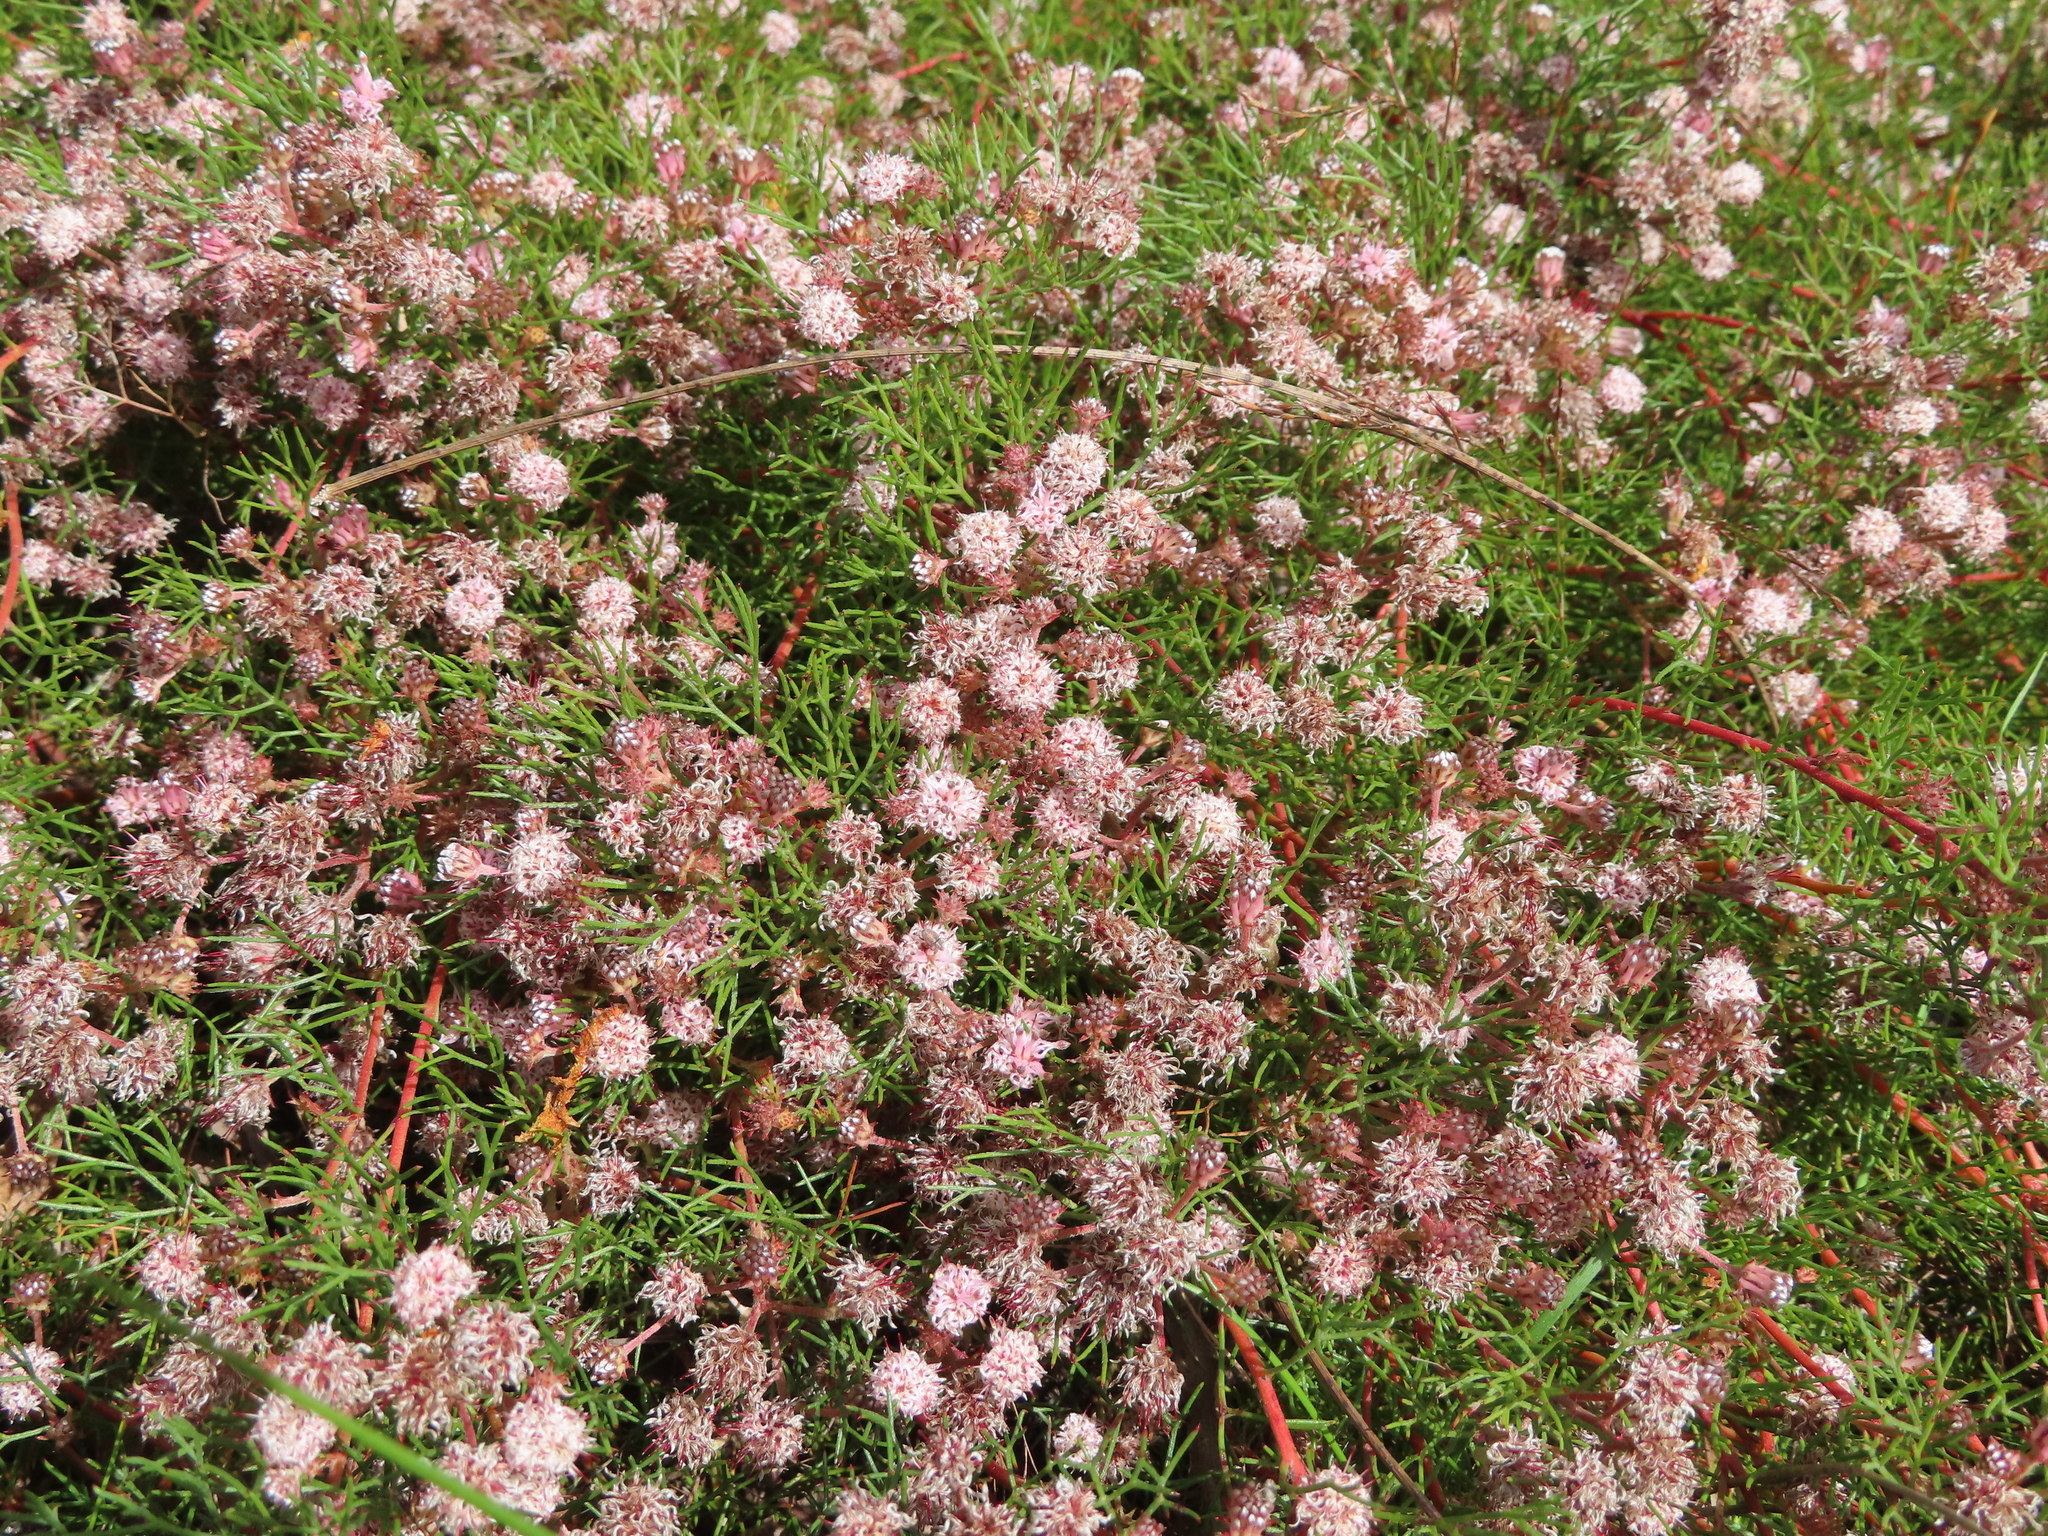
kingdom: Plantae
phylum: Tracheophyta
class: Magnoliopsida
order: Proteales
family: Proteaceae
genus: Serruria
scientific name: Serruria fasciflora
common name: Common pin spiderhead
